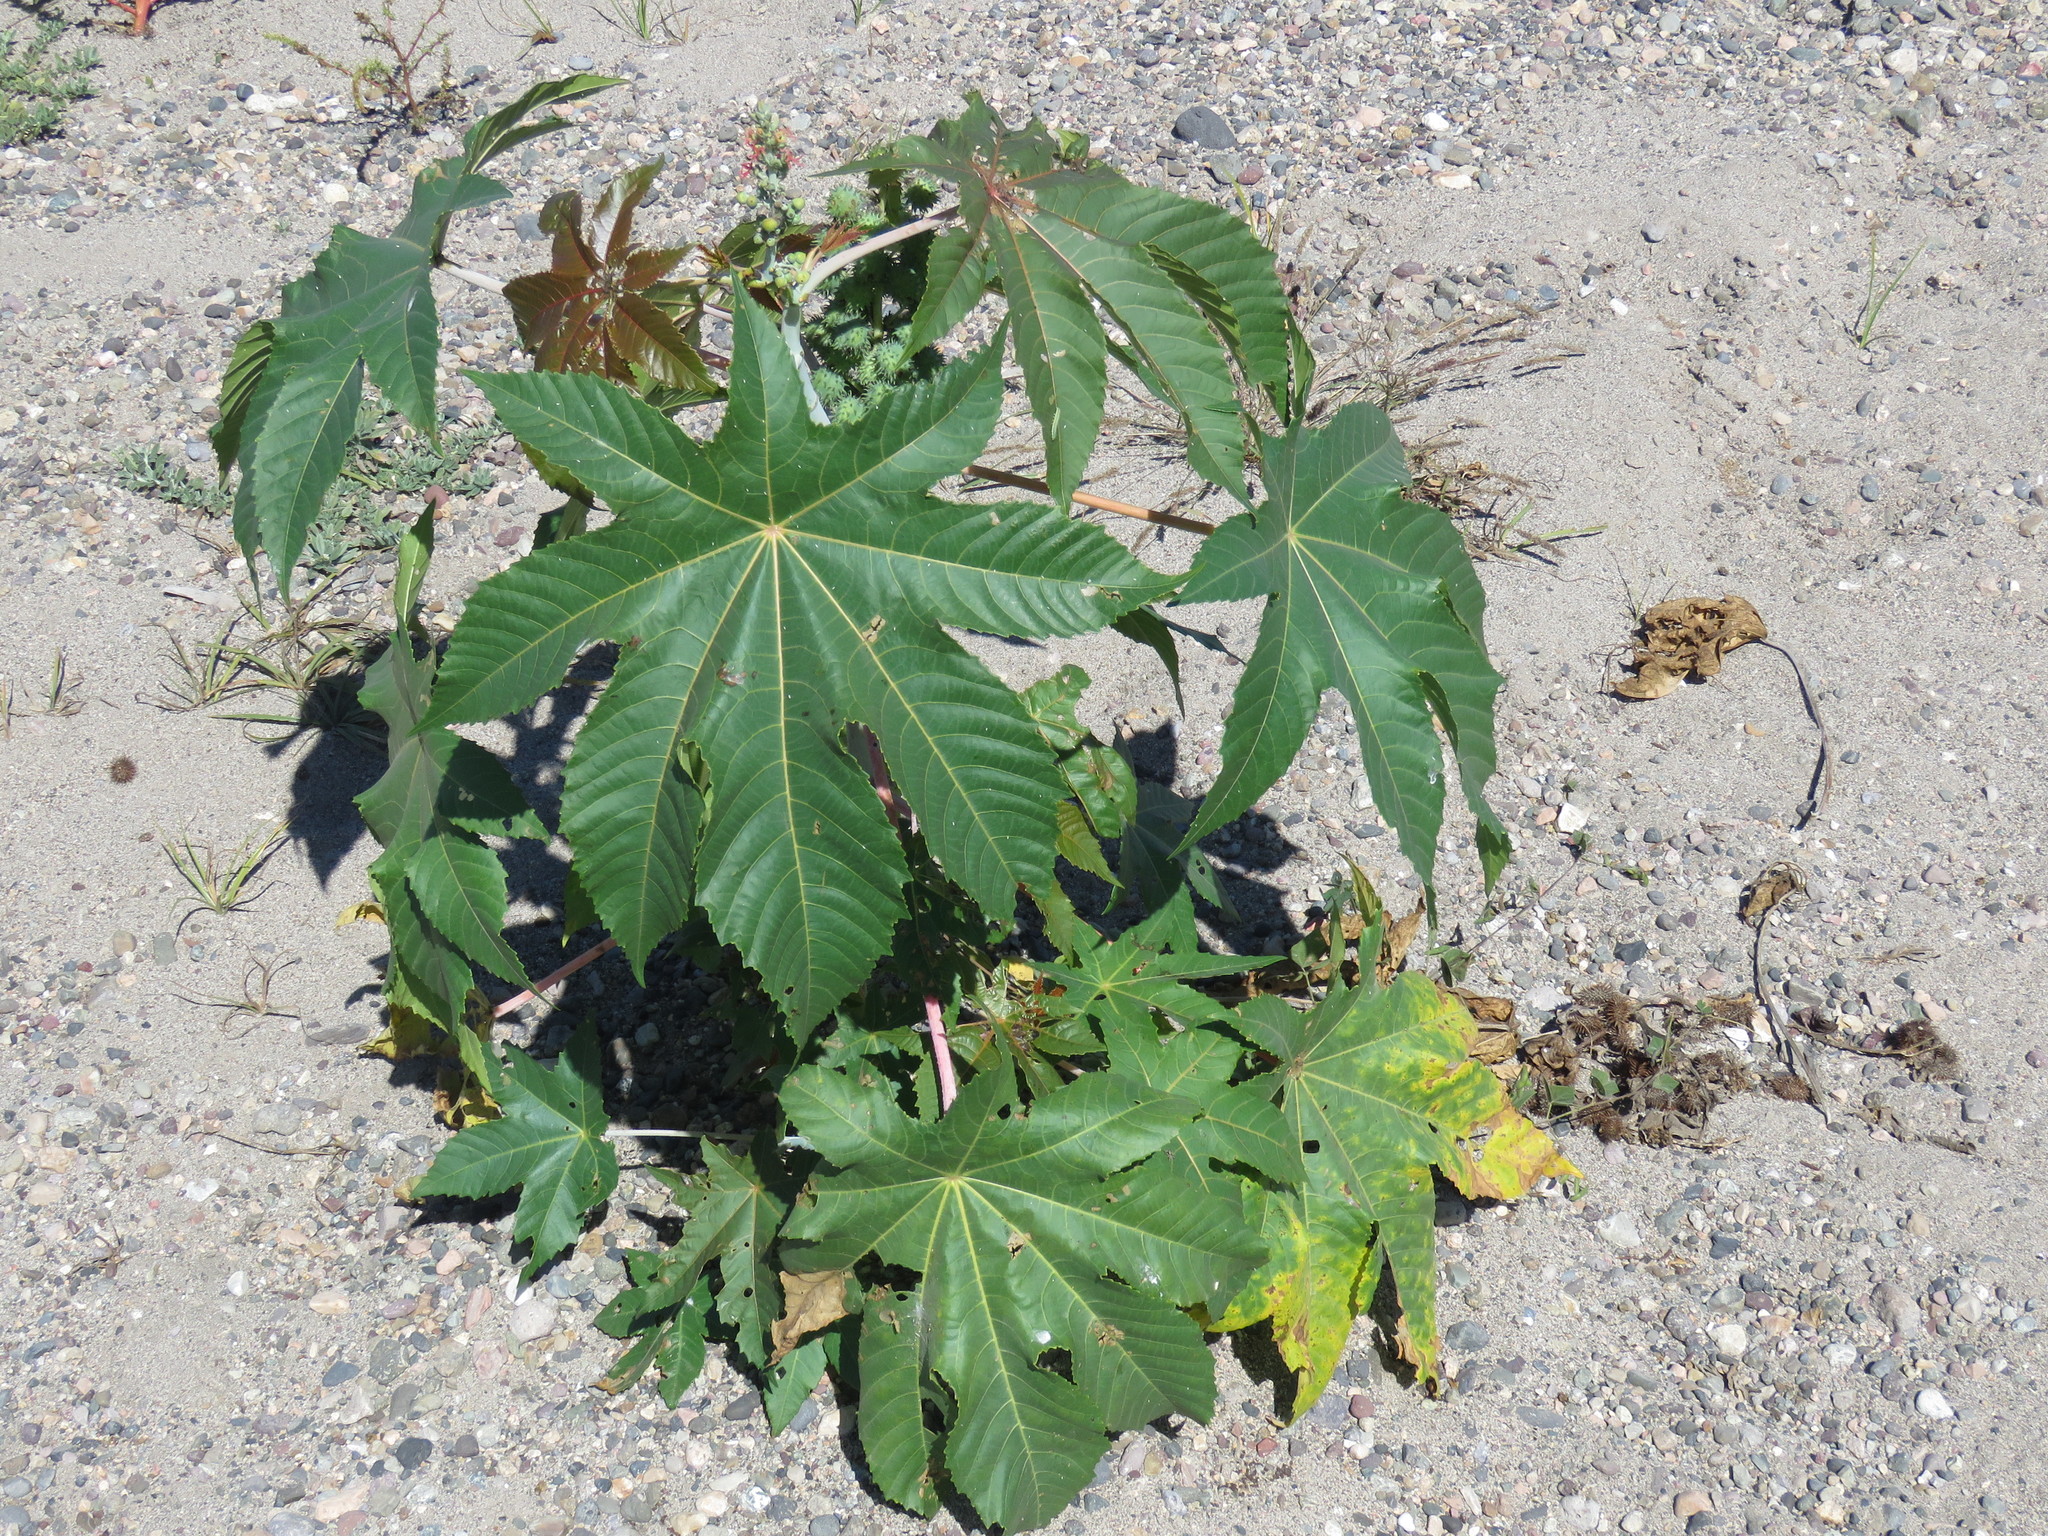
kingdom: Plantae
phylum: Tracheophyta
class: Magnoliopsida
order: Malpighiales
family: Euphorbiaceae
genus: Ricinus
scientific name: Ricinus communis
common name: Castor-oil-plant
